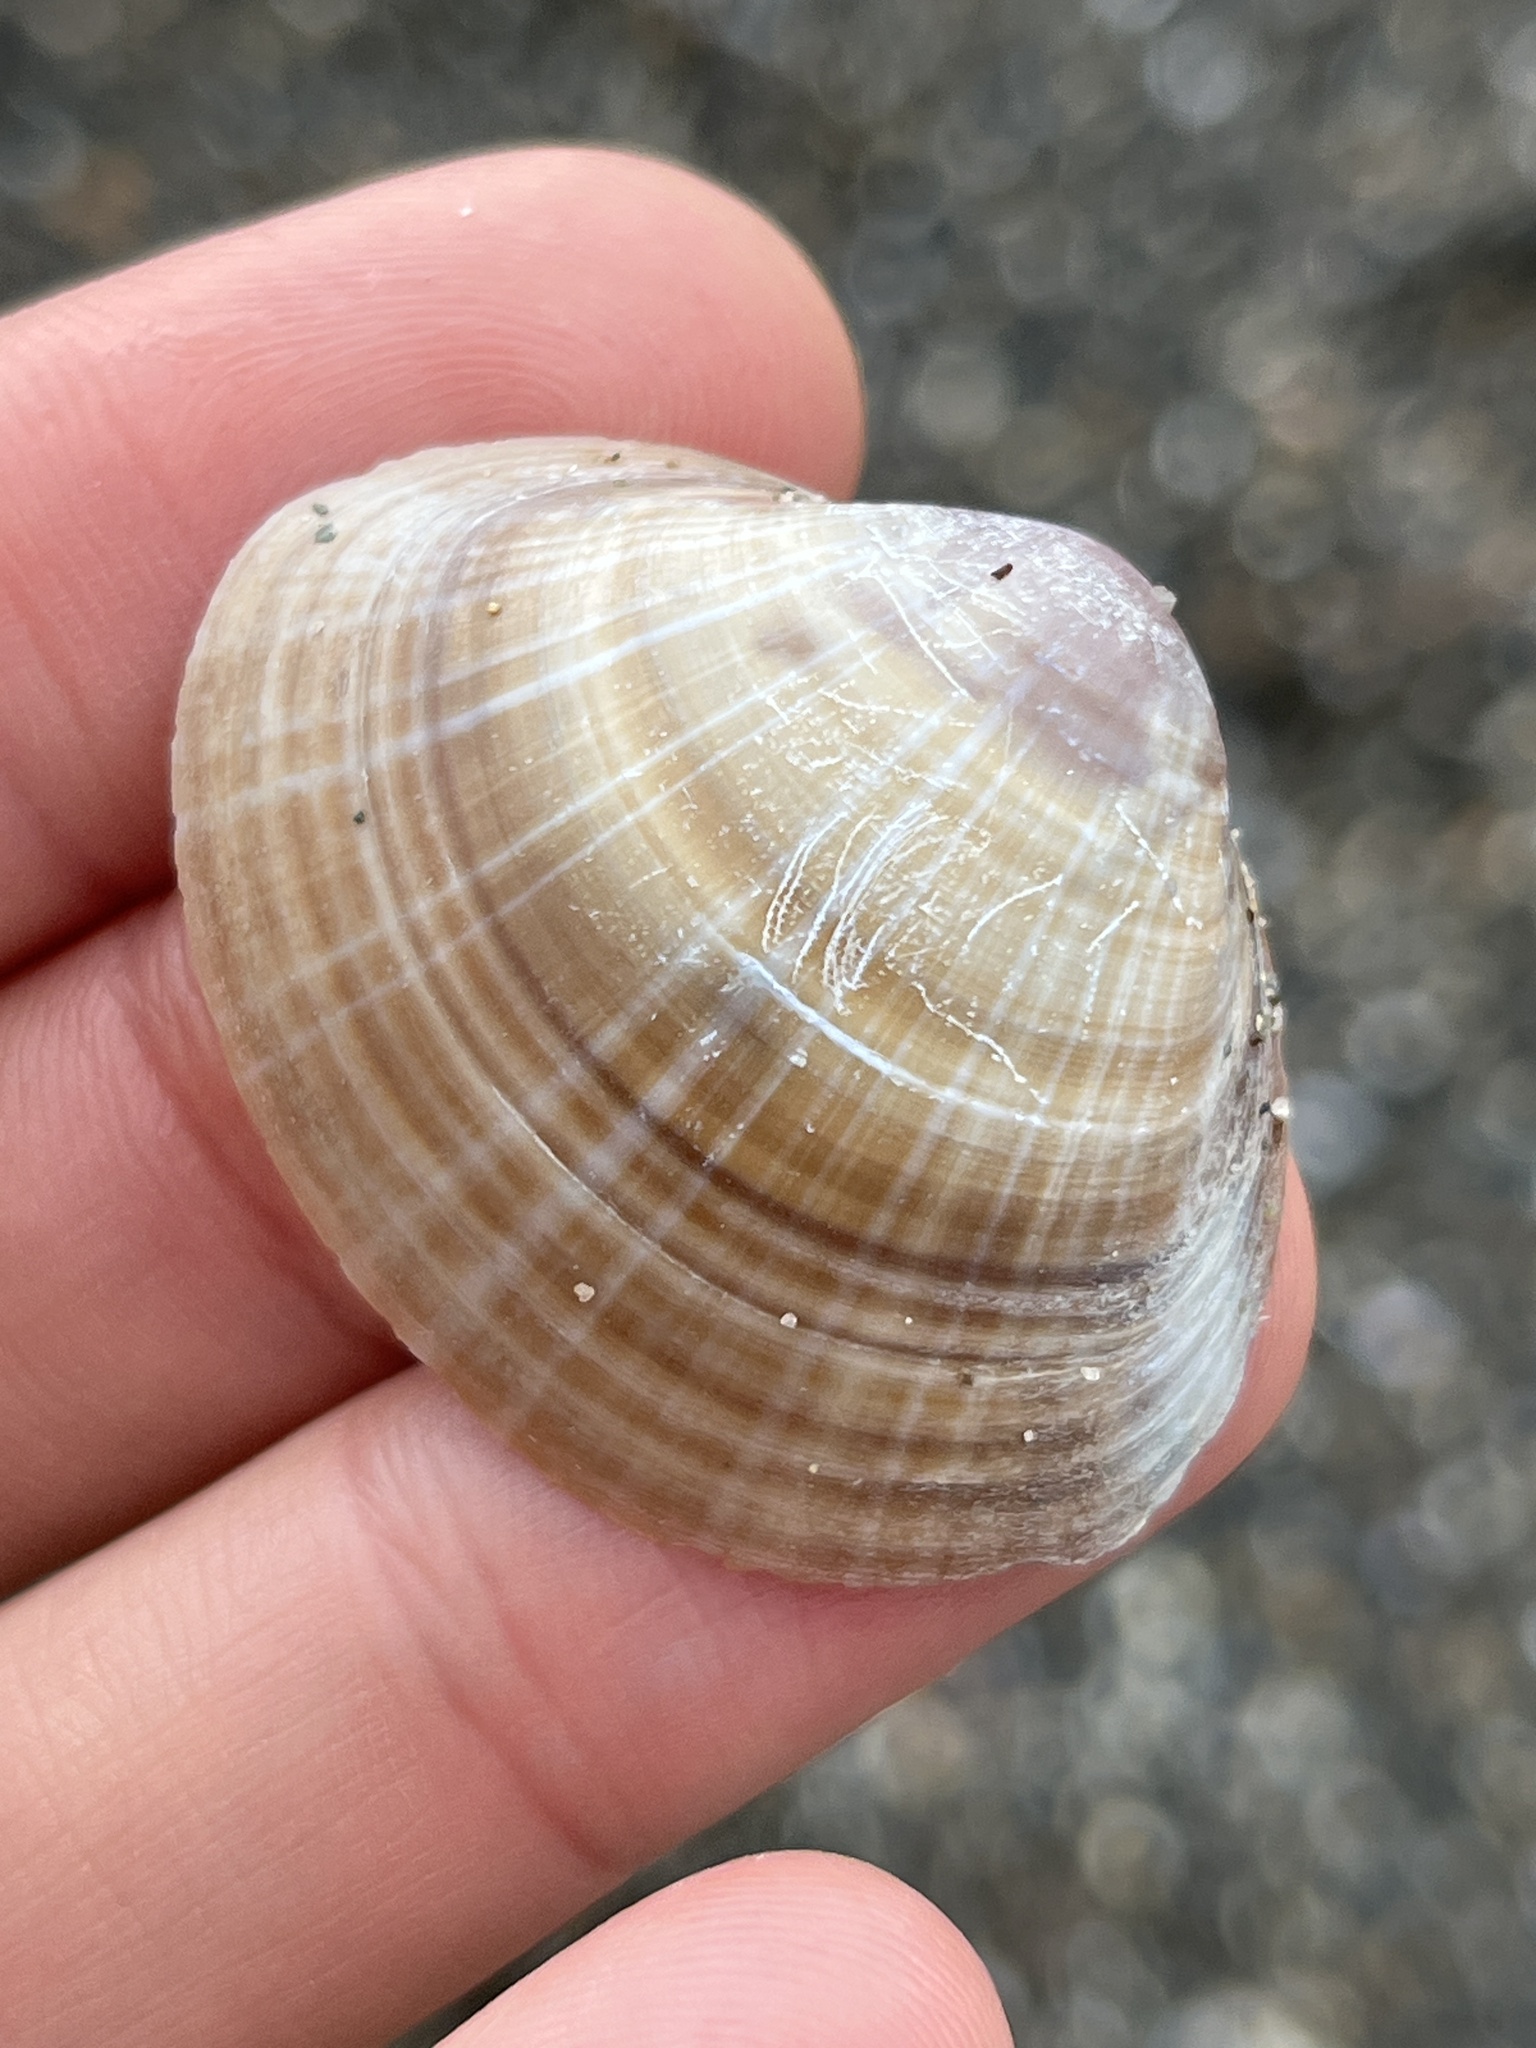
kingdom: Animalia
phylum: Mollusca
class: Bivalvia
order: Venerida
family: Mactridae
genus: Mactra
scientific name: Mactra stultorum
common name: Rayed trough shell
